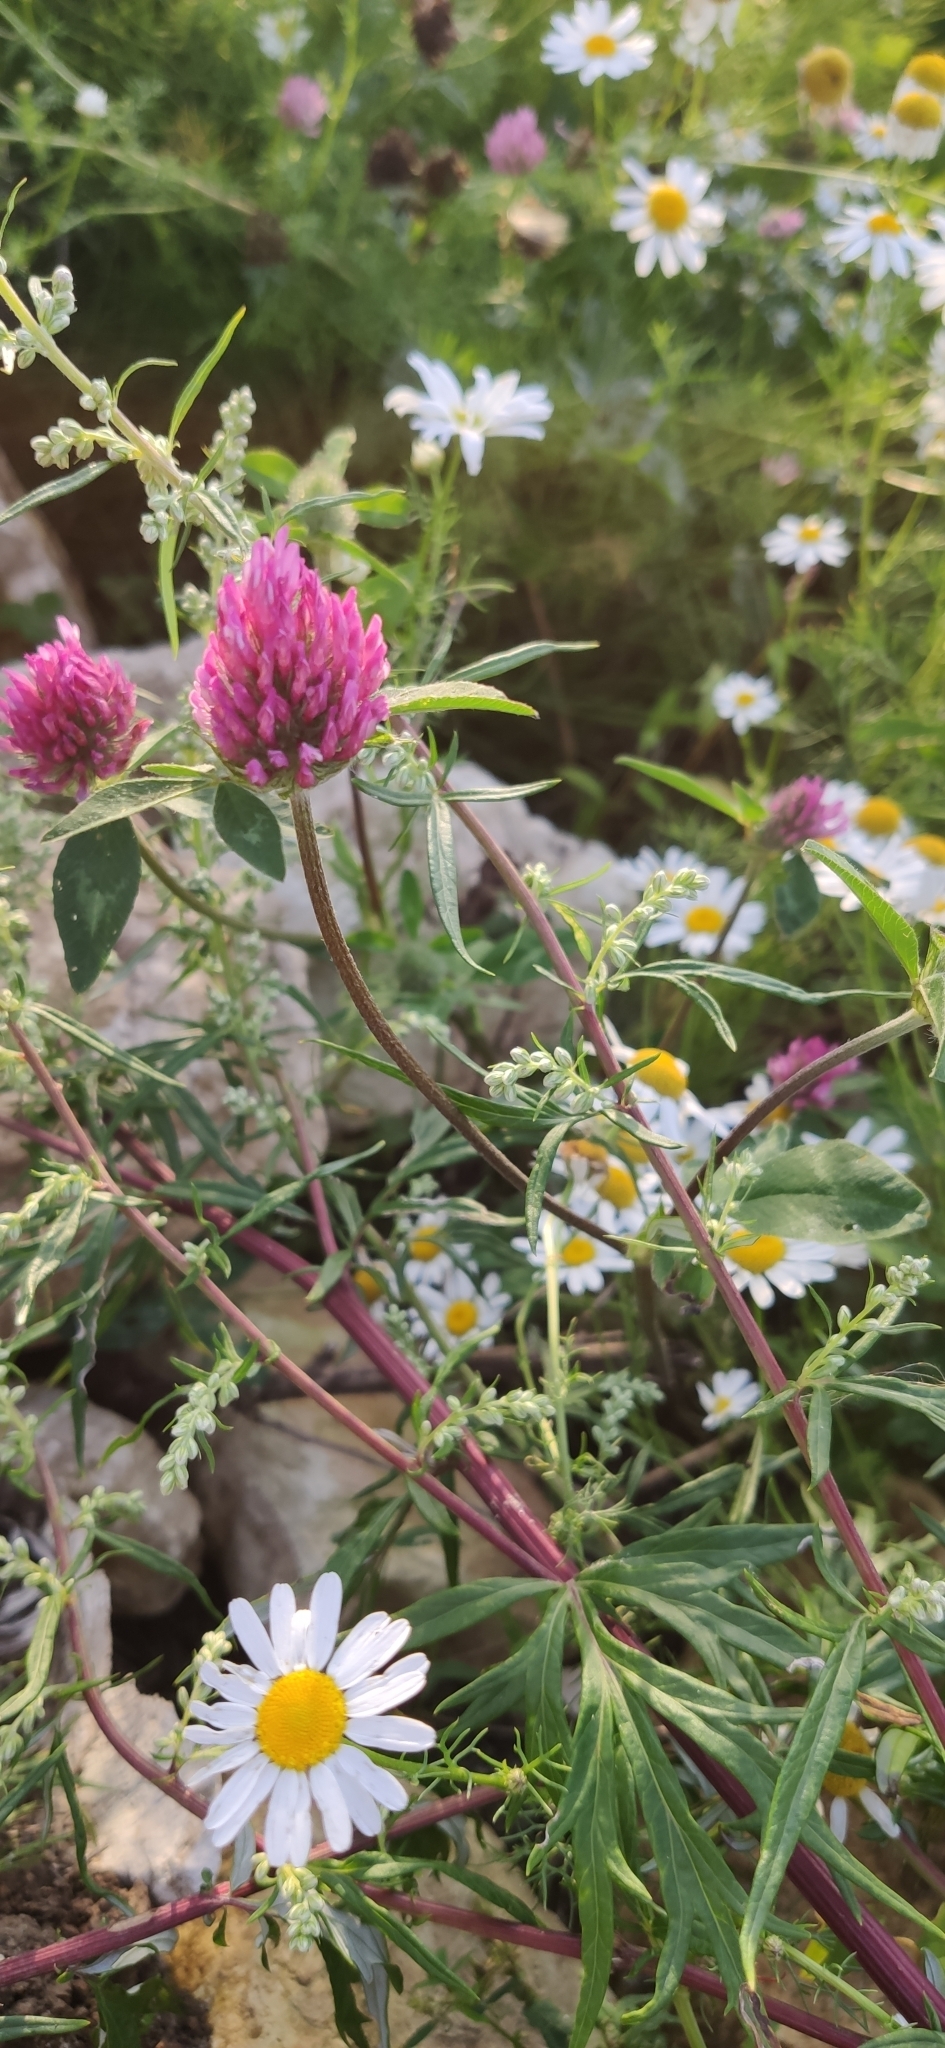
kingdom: Plantae
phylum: Tracheophyta
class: Magnoliopsida
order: Fabales
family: Fabaceae
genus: Trifolium
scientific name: Trifolium pratense
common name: Red clover
